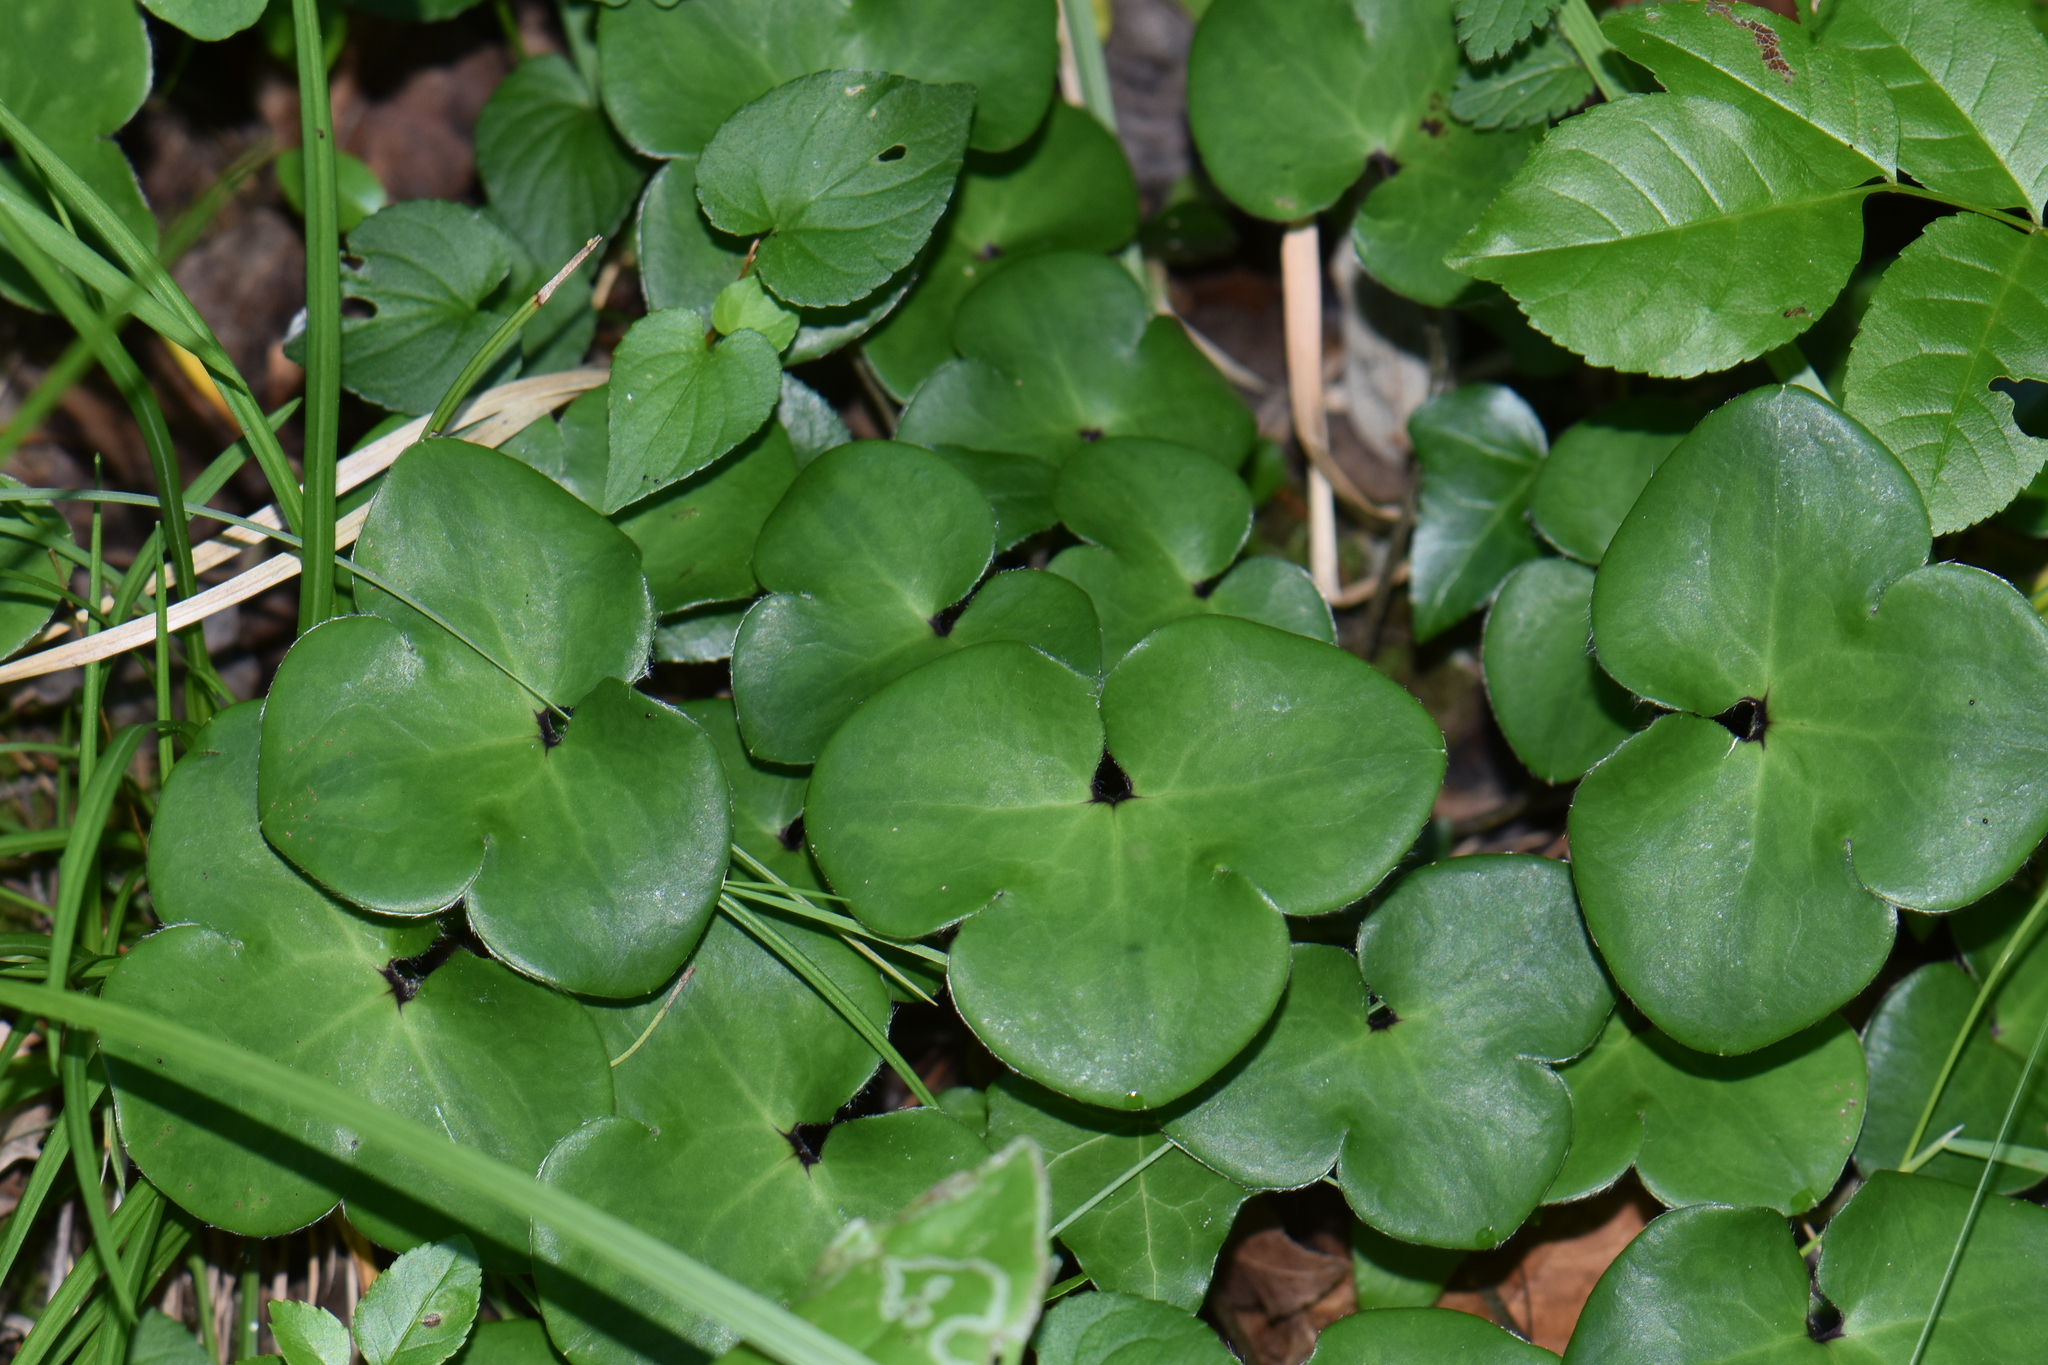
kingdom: Plantae
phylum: Tracheophyta
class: Magnoliopsida
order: Ranunculales
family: Ranunculaceae
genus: Hepatica
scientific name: Hepatica nobilis
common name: Liverleaf
